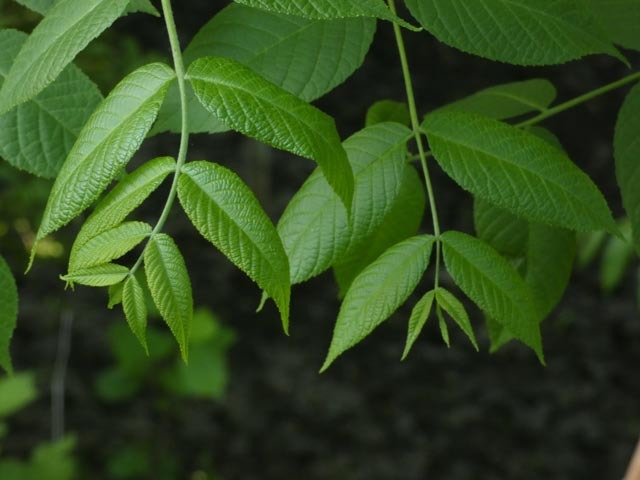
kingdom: Plantae
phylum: Tracheophyta
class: Magnoliopsida
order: Fagales
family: Juglandaceae
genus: Juglans
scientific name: Juglans nigra
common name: Black walnut
